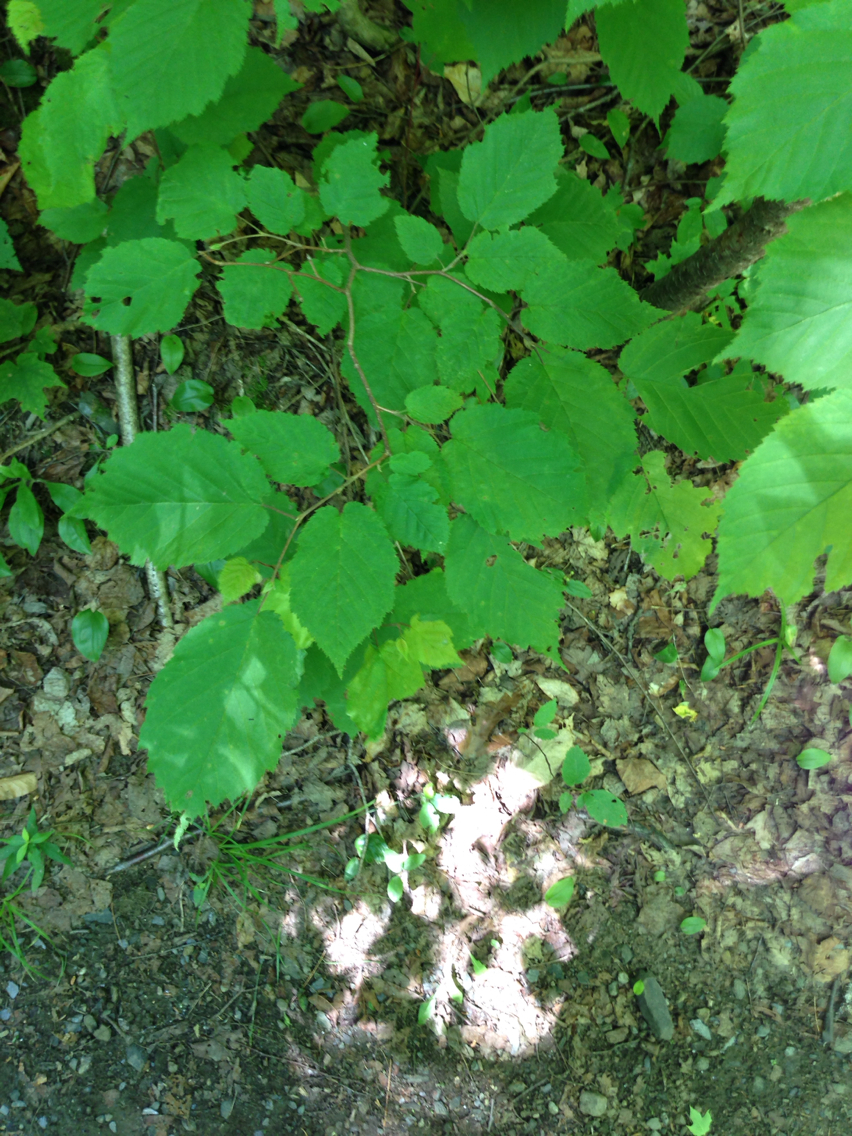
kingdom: Plantae
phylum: Tracheophyta
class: Magnoliopsida
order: Fagales
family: Betulaceae
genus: Corylus
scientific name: Corylus cornuta
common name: Beaked hazel
